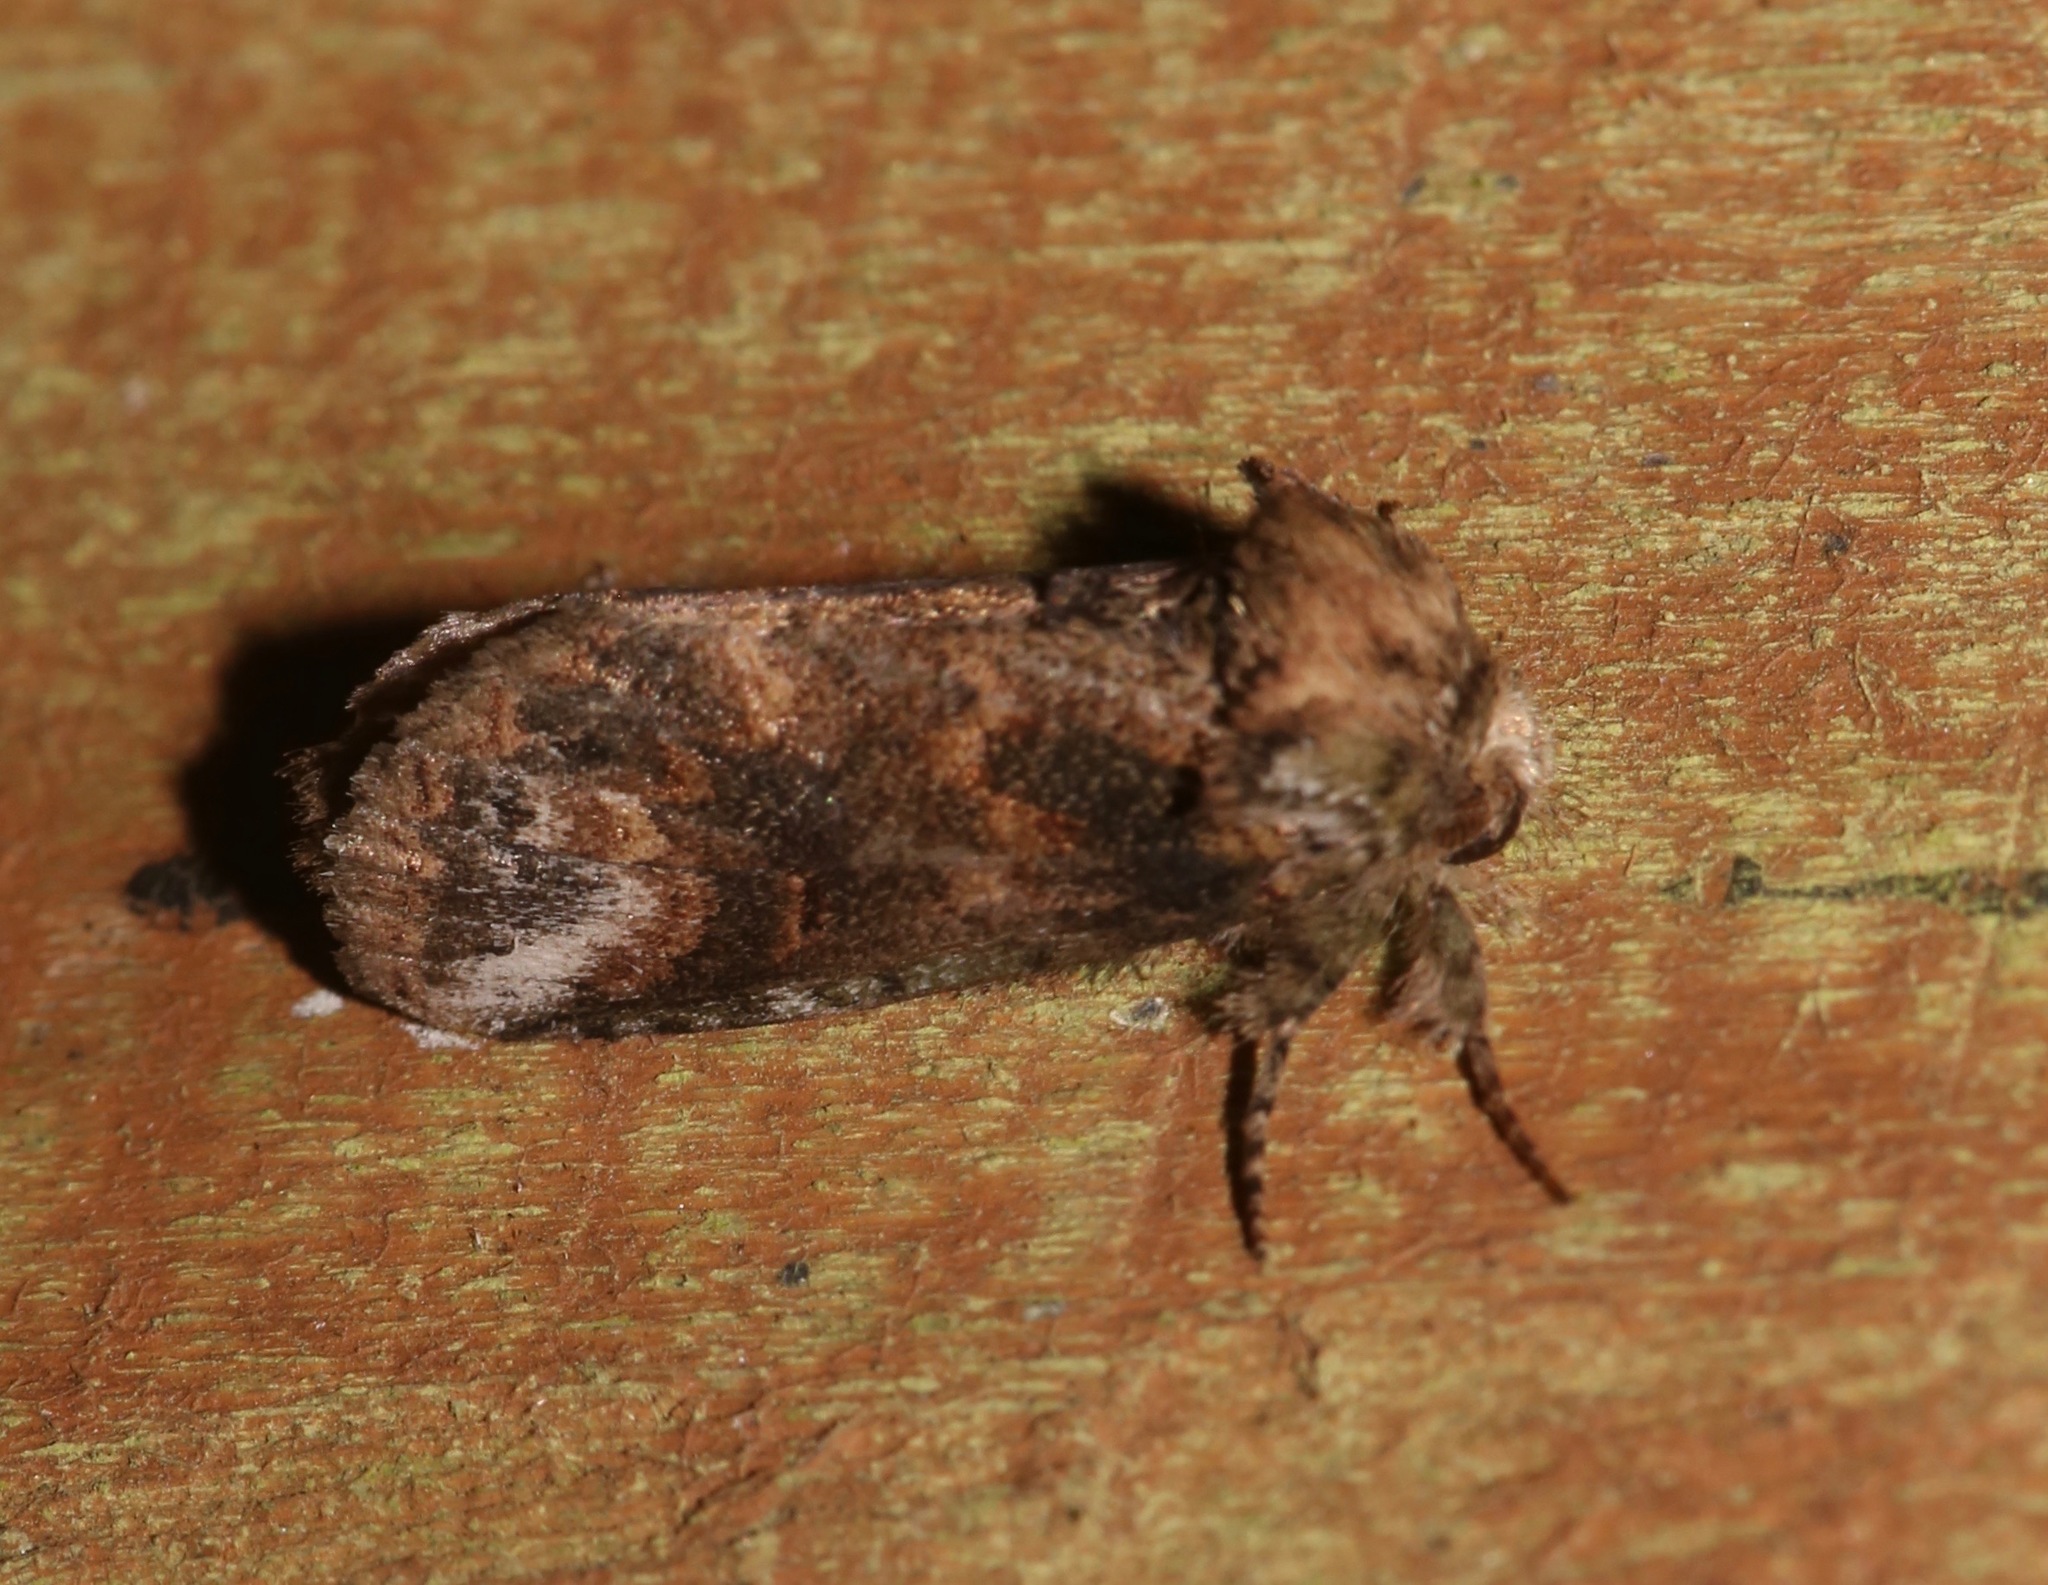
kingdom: Animalia
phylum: Arthropoda
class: Insecta
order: Lepidoptera
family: Notodontidae
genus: Rifargia
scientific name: Rifargia
